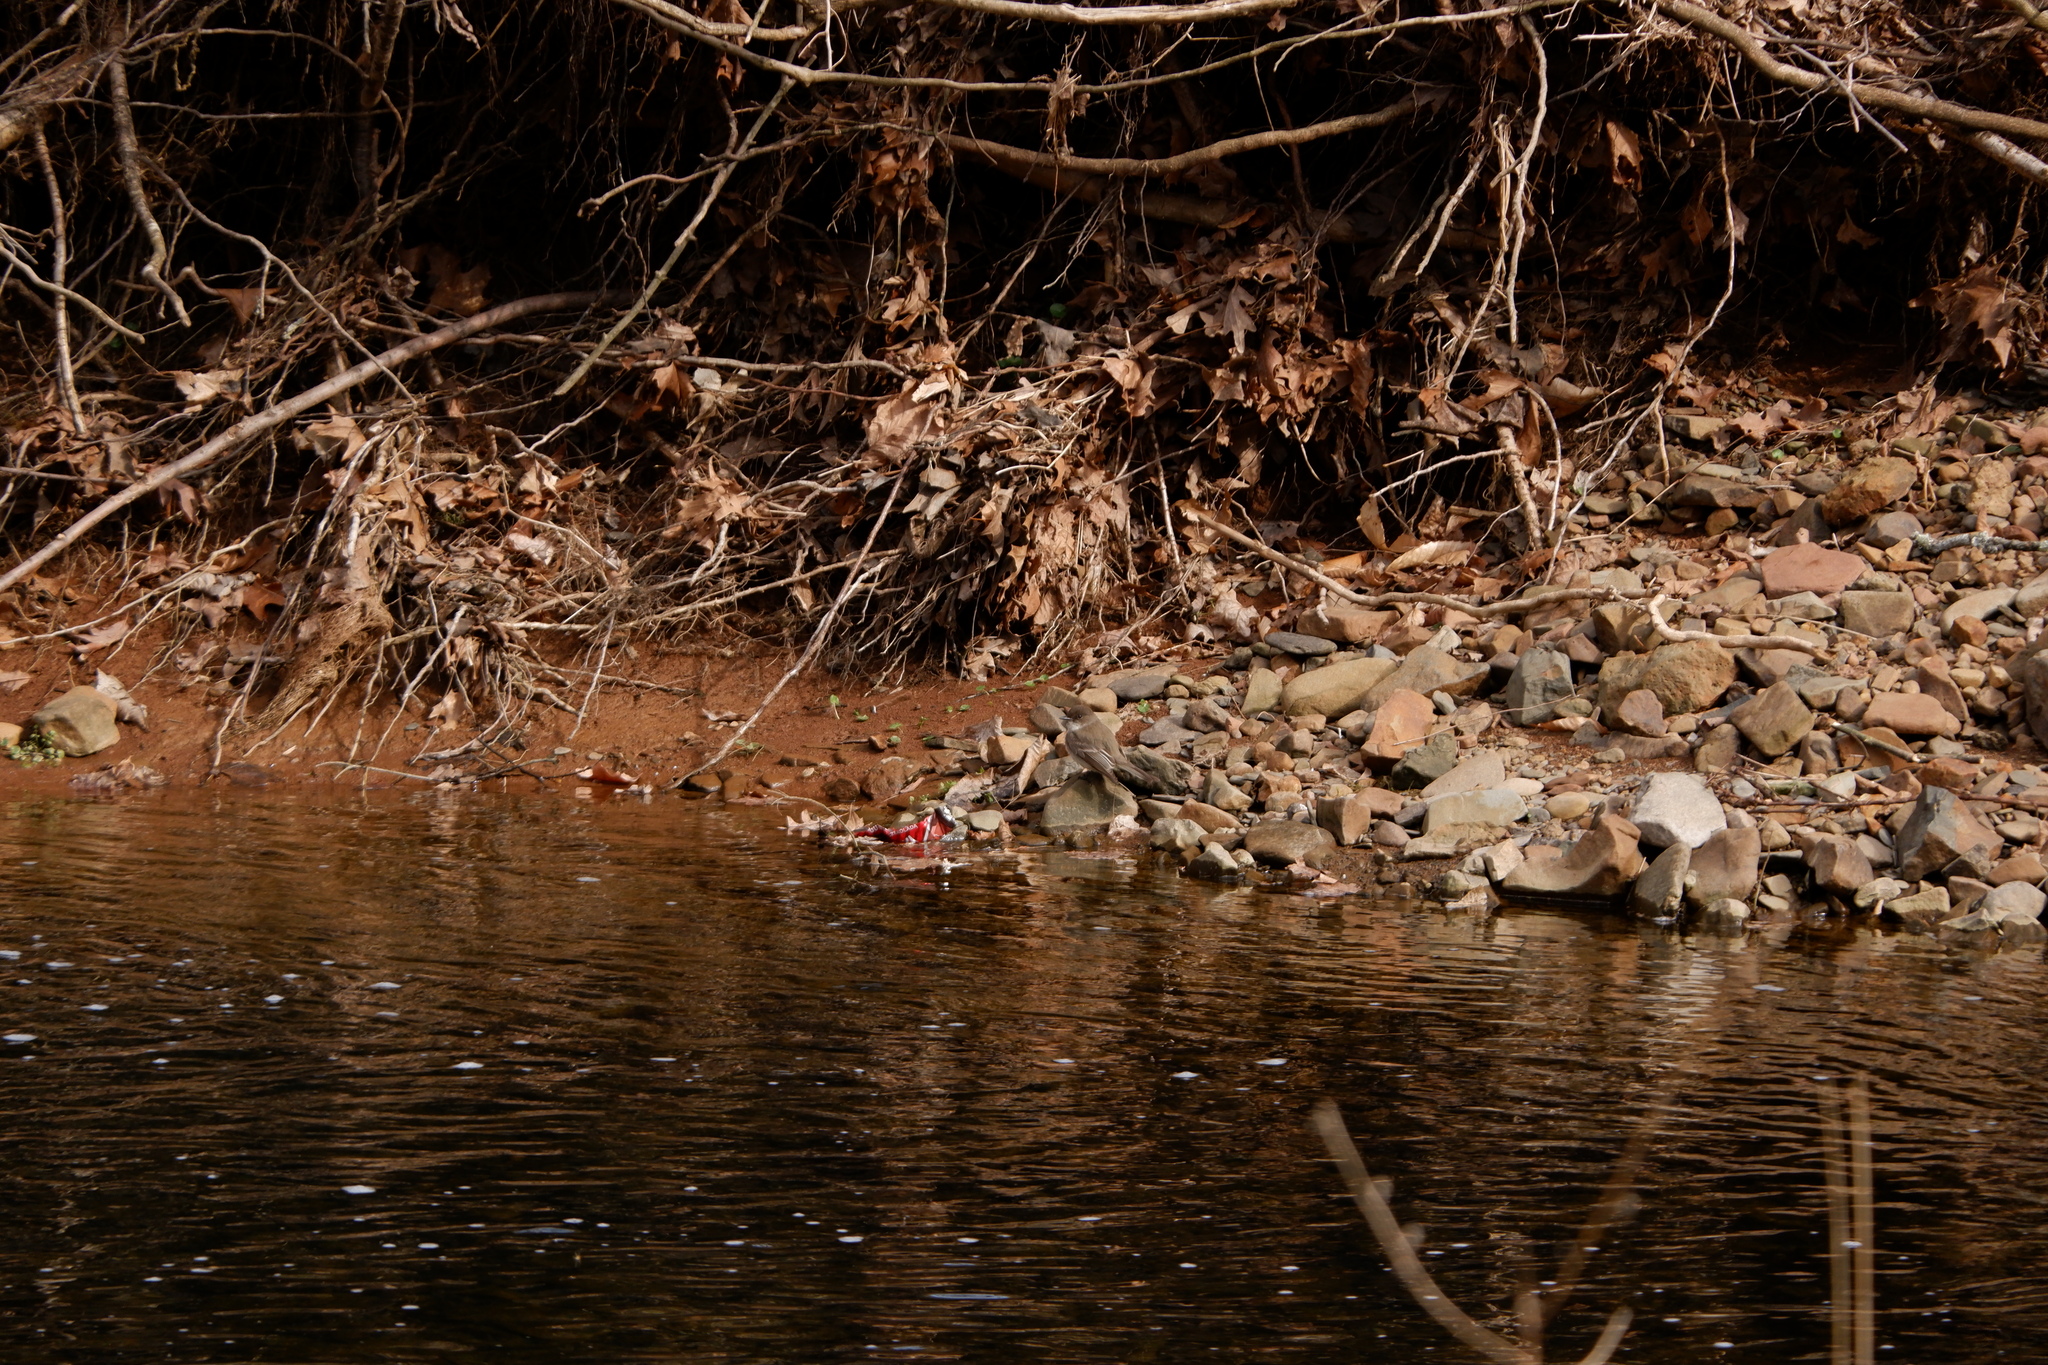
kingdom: Animalia
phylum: Chordata
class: Aves
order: Passeriformes
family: Tyrannidae
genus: Sayornis
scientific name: Sayornis phoebe
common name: Eastern phoebe
